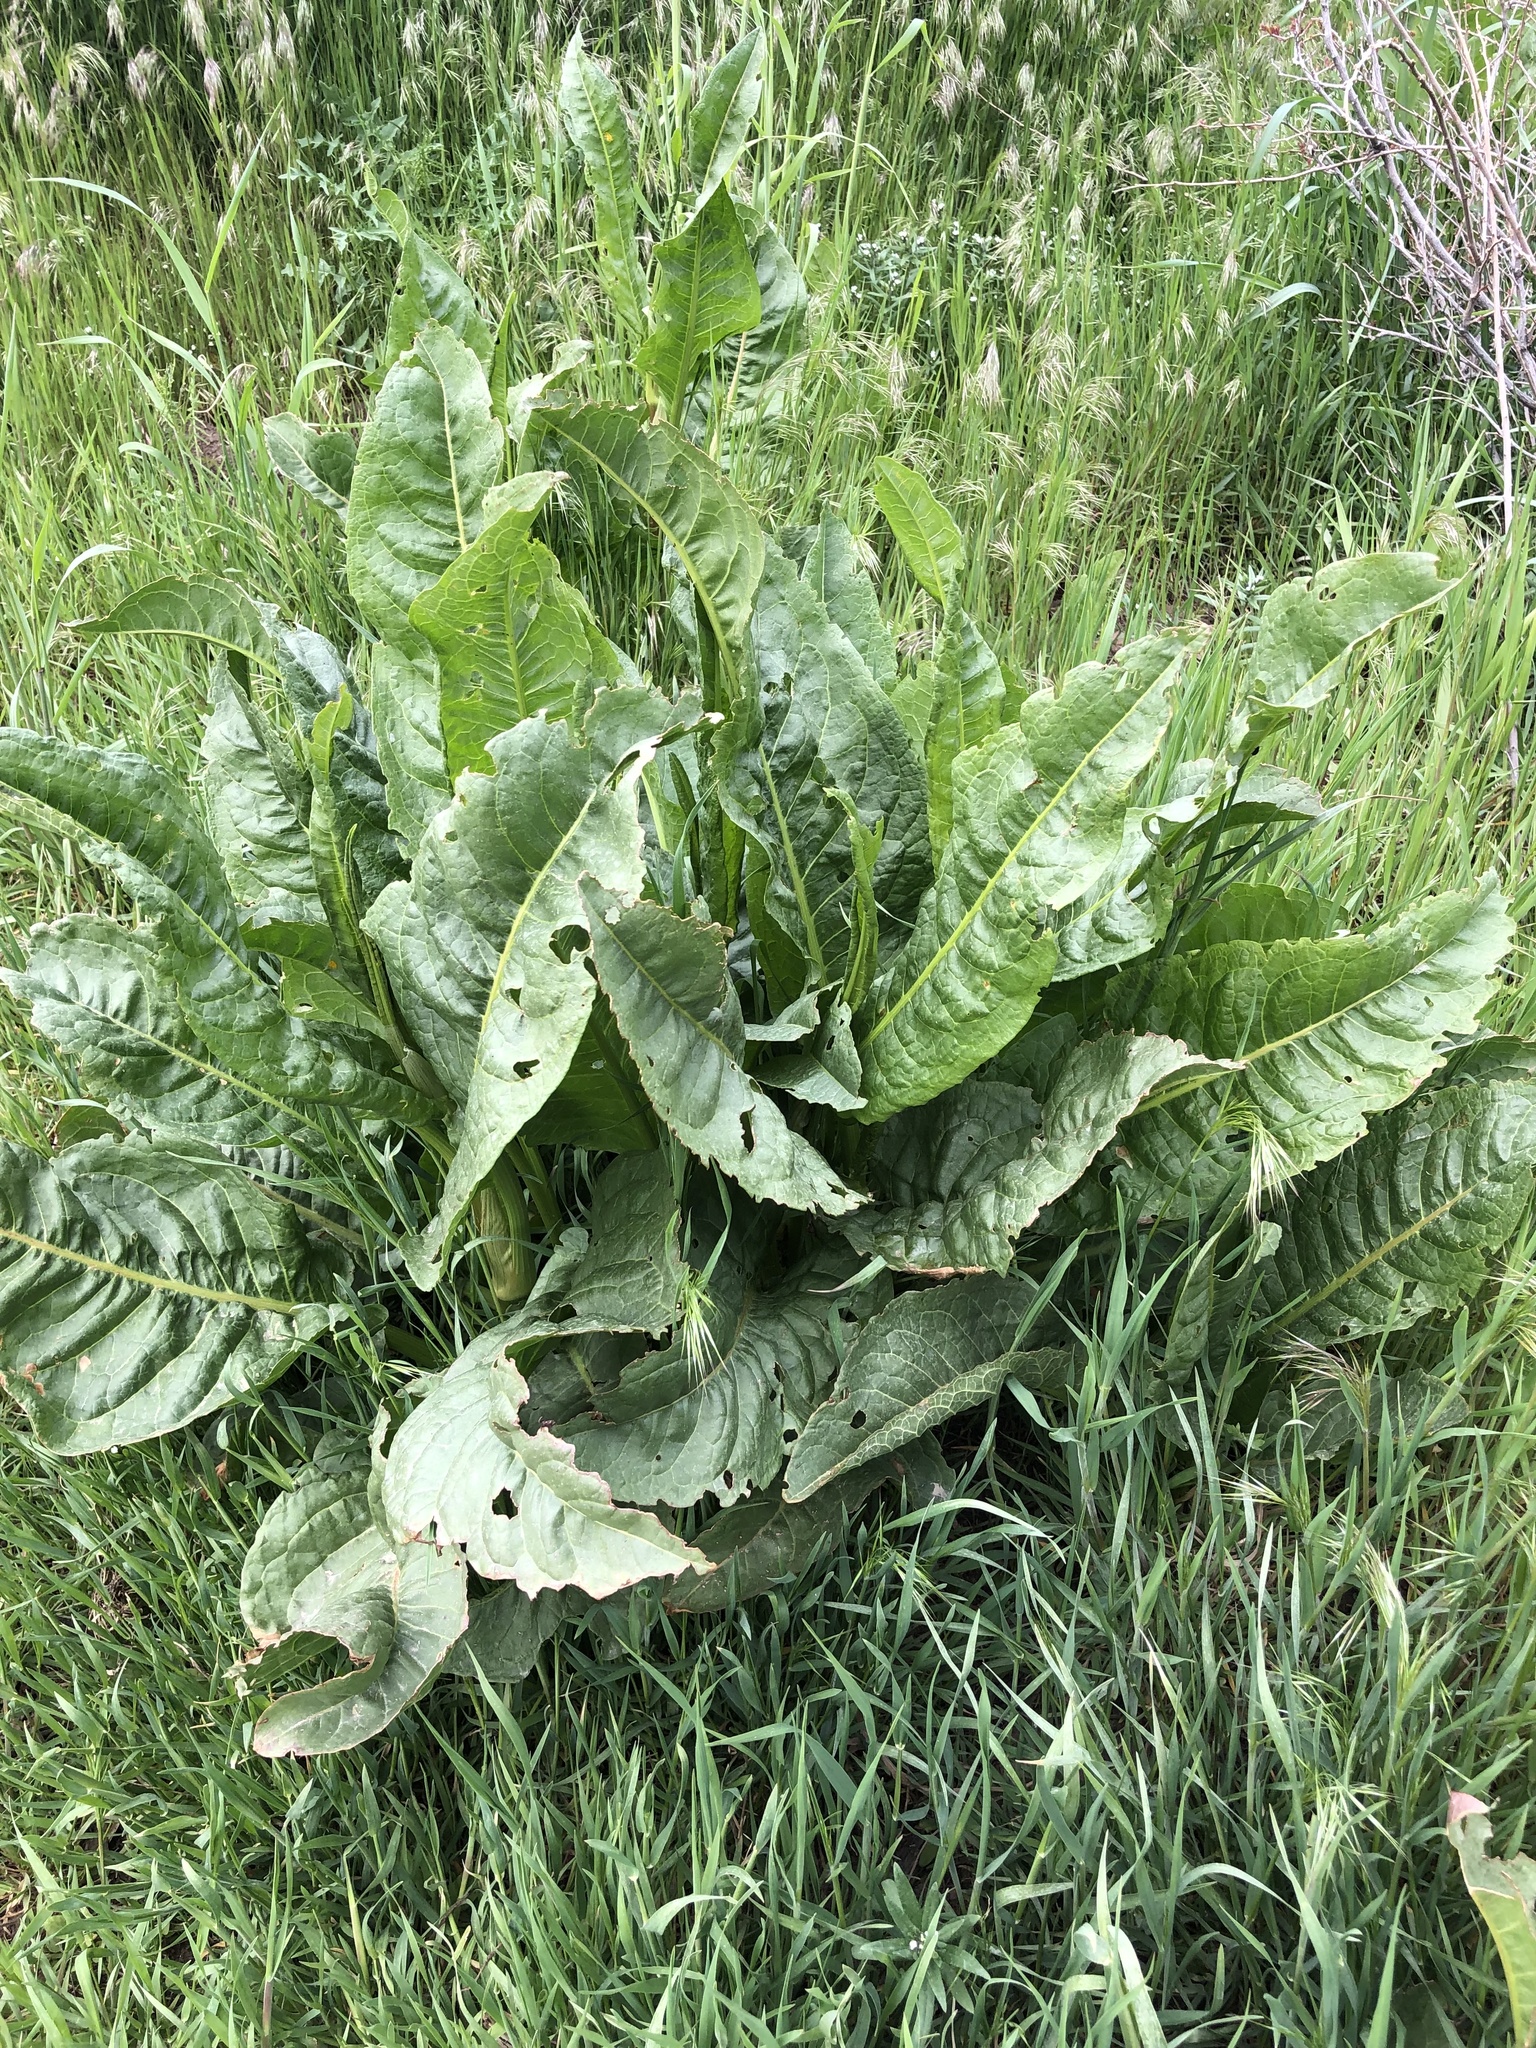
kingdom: Plantae
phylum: Tracheophyta
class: Magnoliopsida
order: Caryophyllales
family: Polygonaceae
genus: Rumex
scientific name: Rumex crispus
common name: Curled dock
